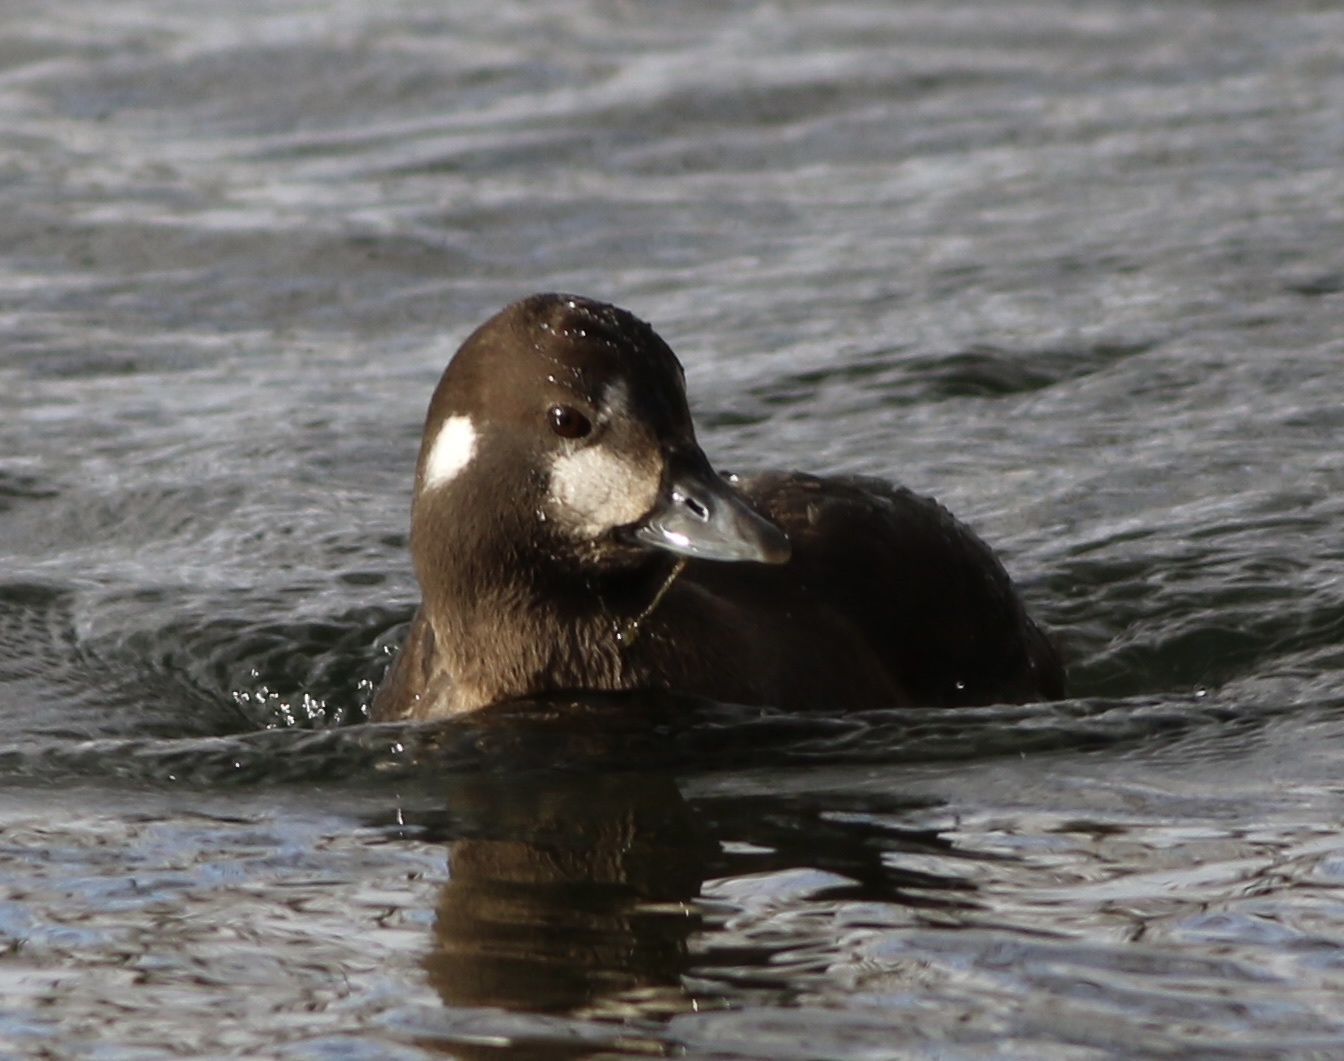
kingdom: Animalia
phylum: Chordata
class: Aves
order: Anseriformes
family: Anatidae
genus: Histrionicus
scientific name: Histrionicus histrionicus
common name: Harlequin duck
